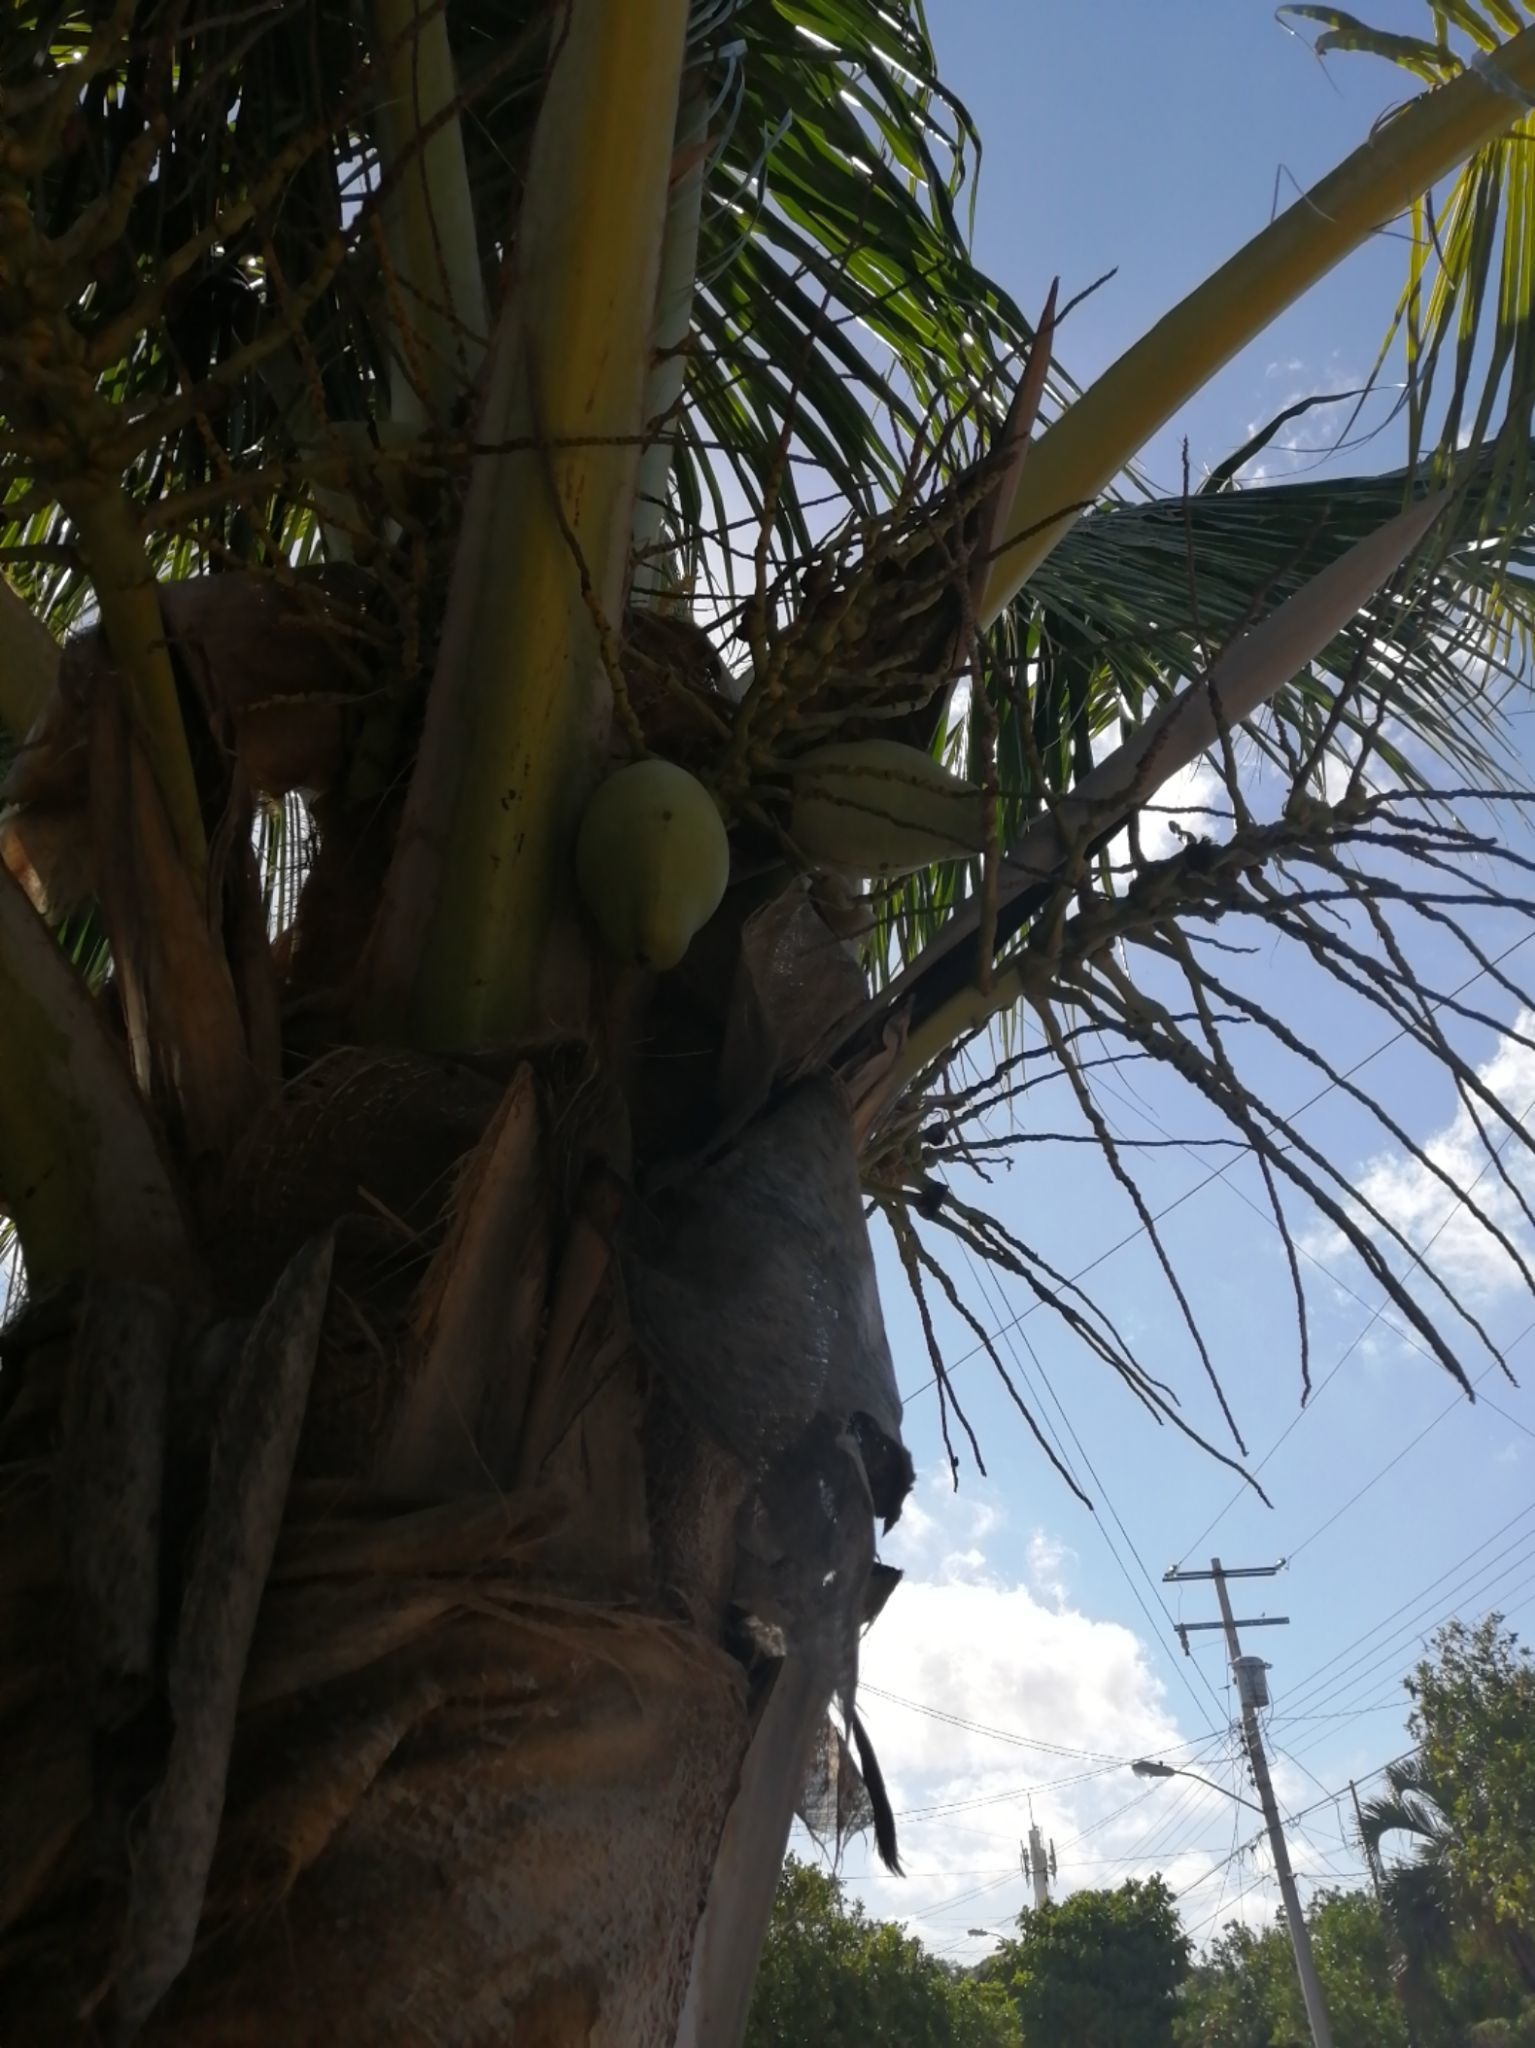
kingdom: Plantae
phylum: Tracheophyta
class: Liliopsida
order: Arecales
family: Arecaceae
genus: Cocos
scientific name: Cocos nucifera
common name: Coconut palm
